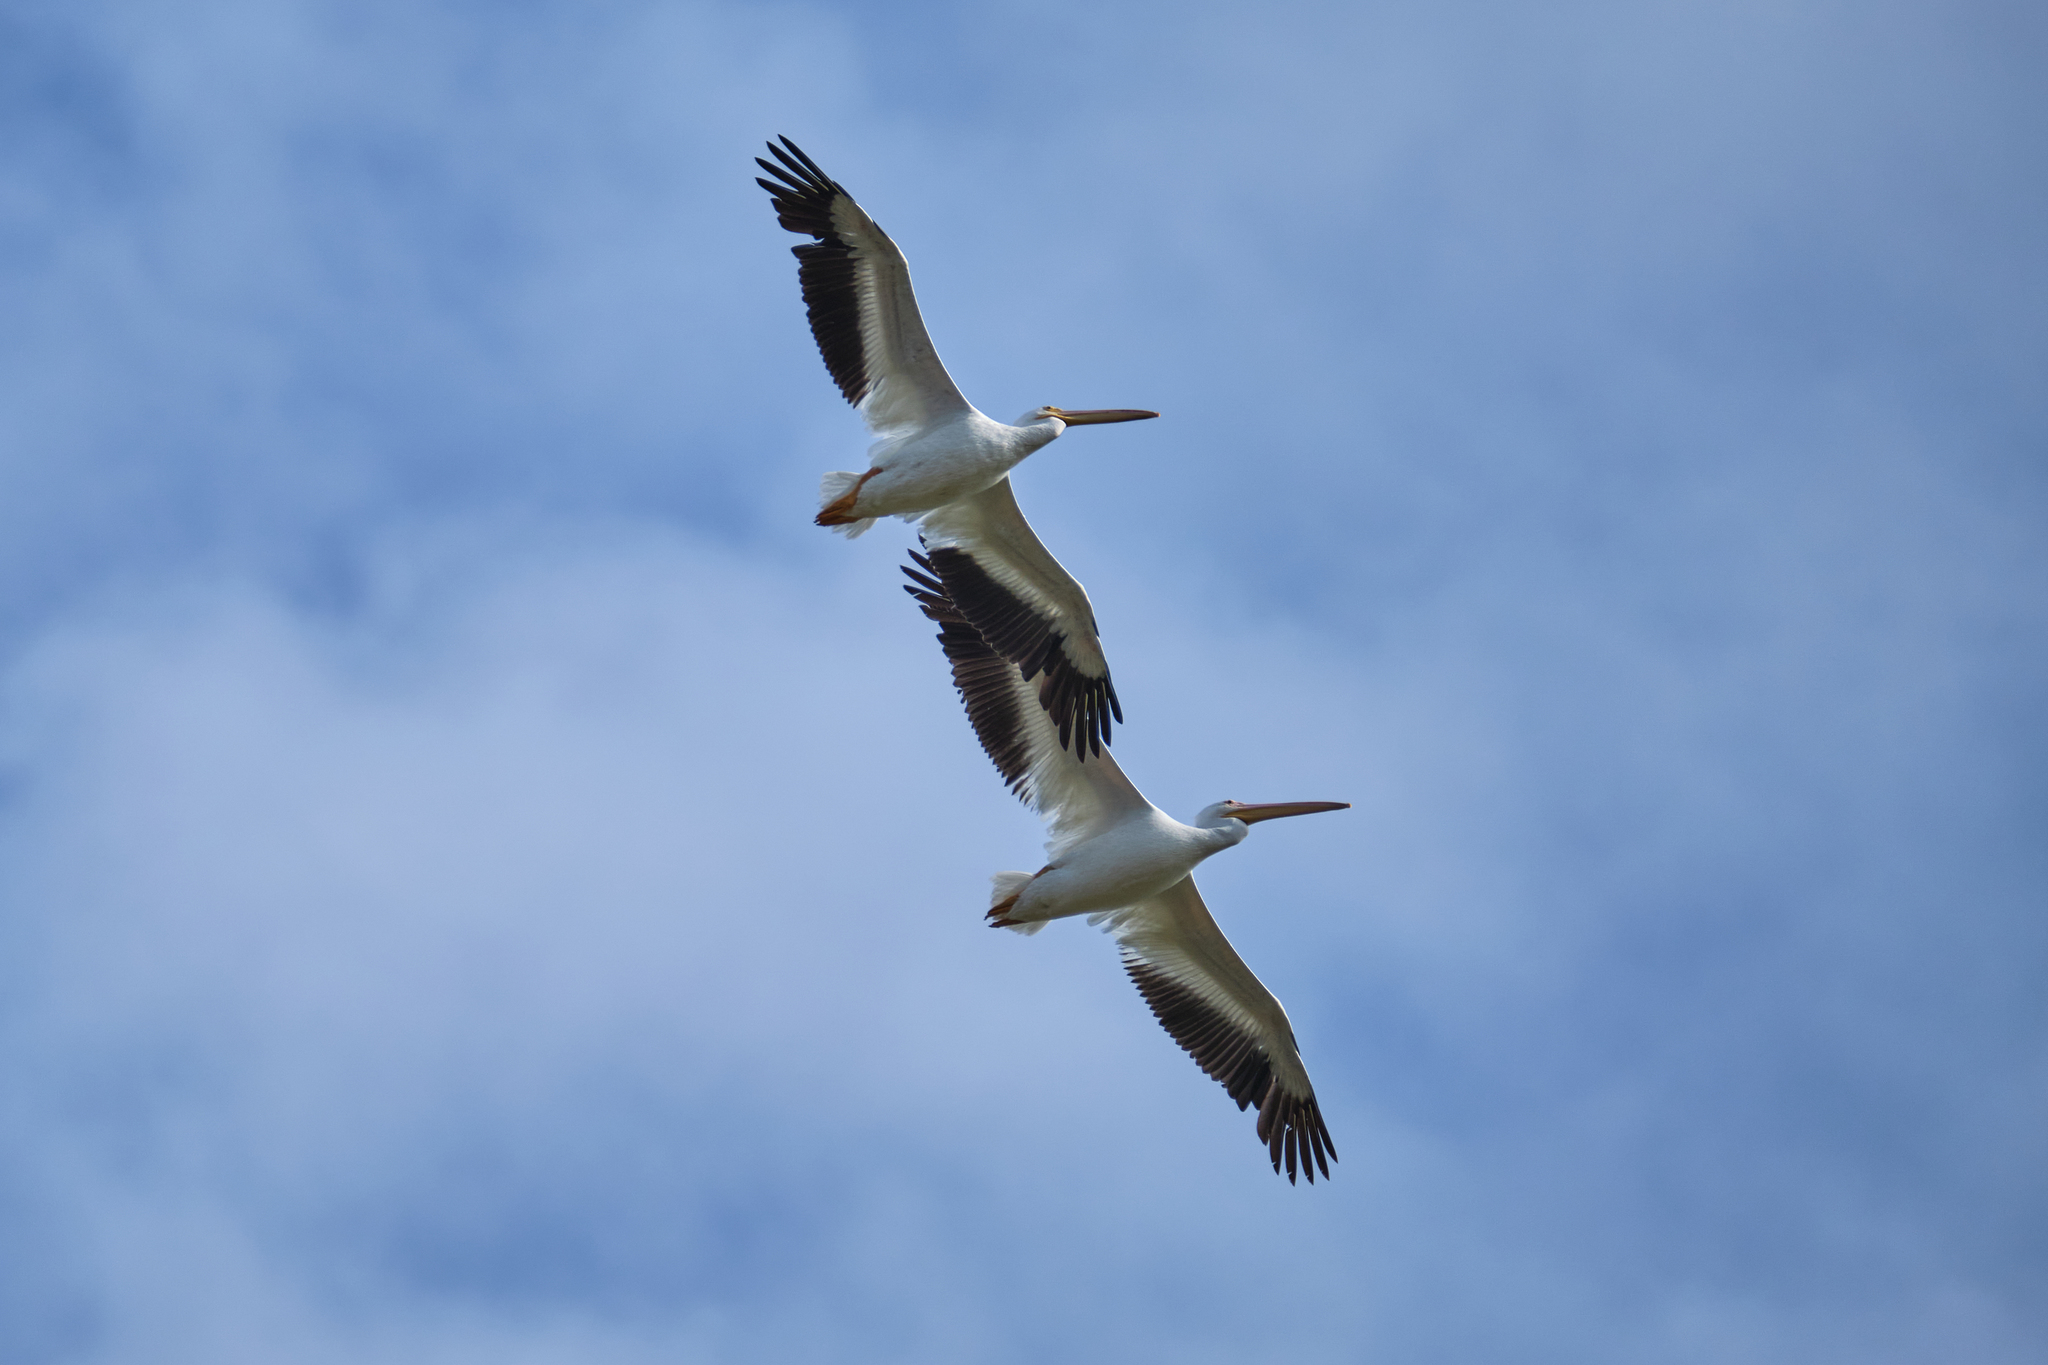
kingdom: Animalia
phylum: Chordata
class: Aves
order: Pelecaniformes
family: Pelecanidae
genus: Pelecanus
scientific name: Pelecanus erythrorhynchos
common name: American white pelican
